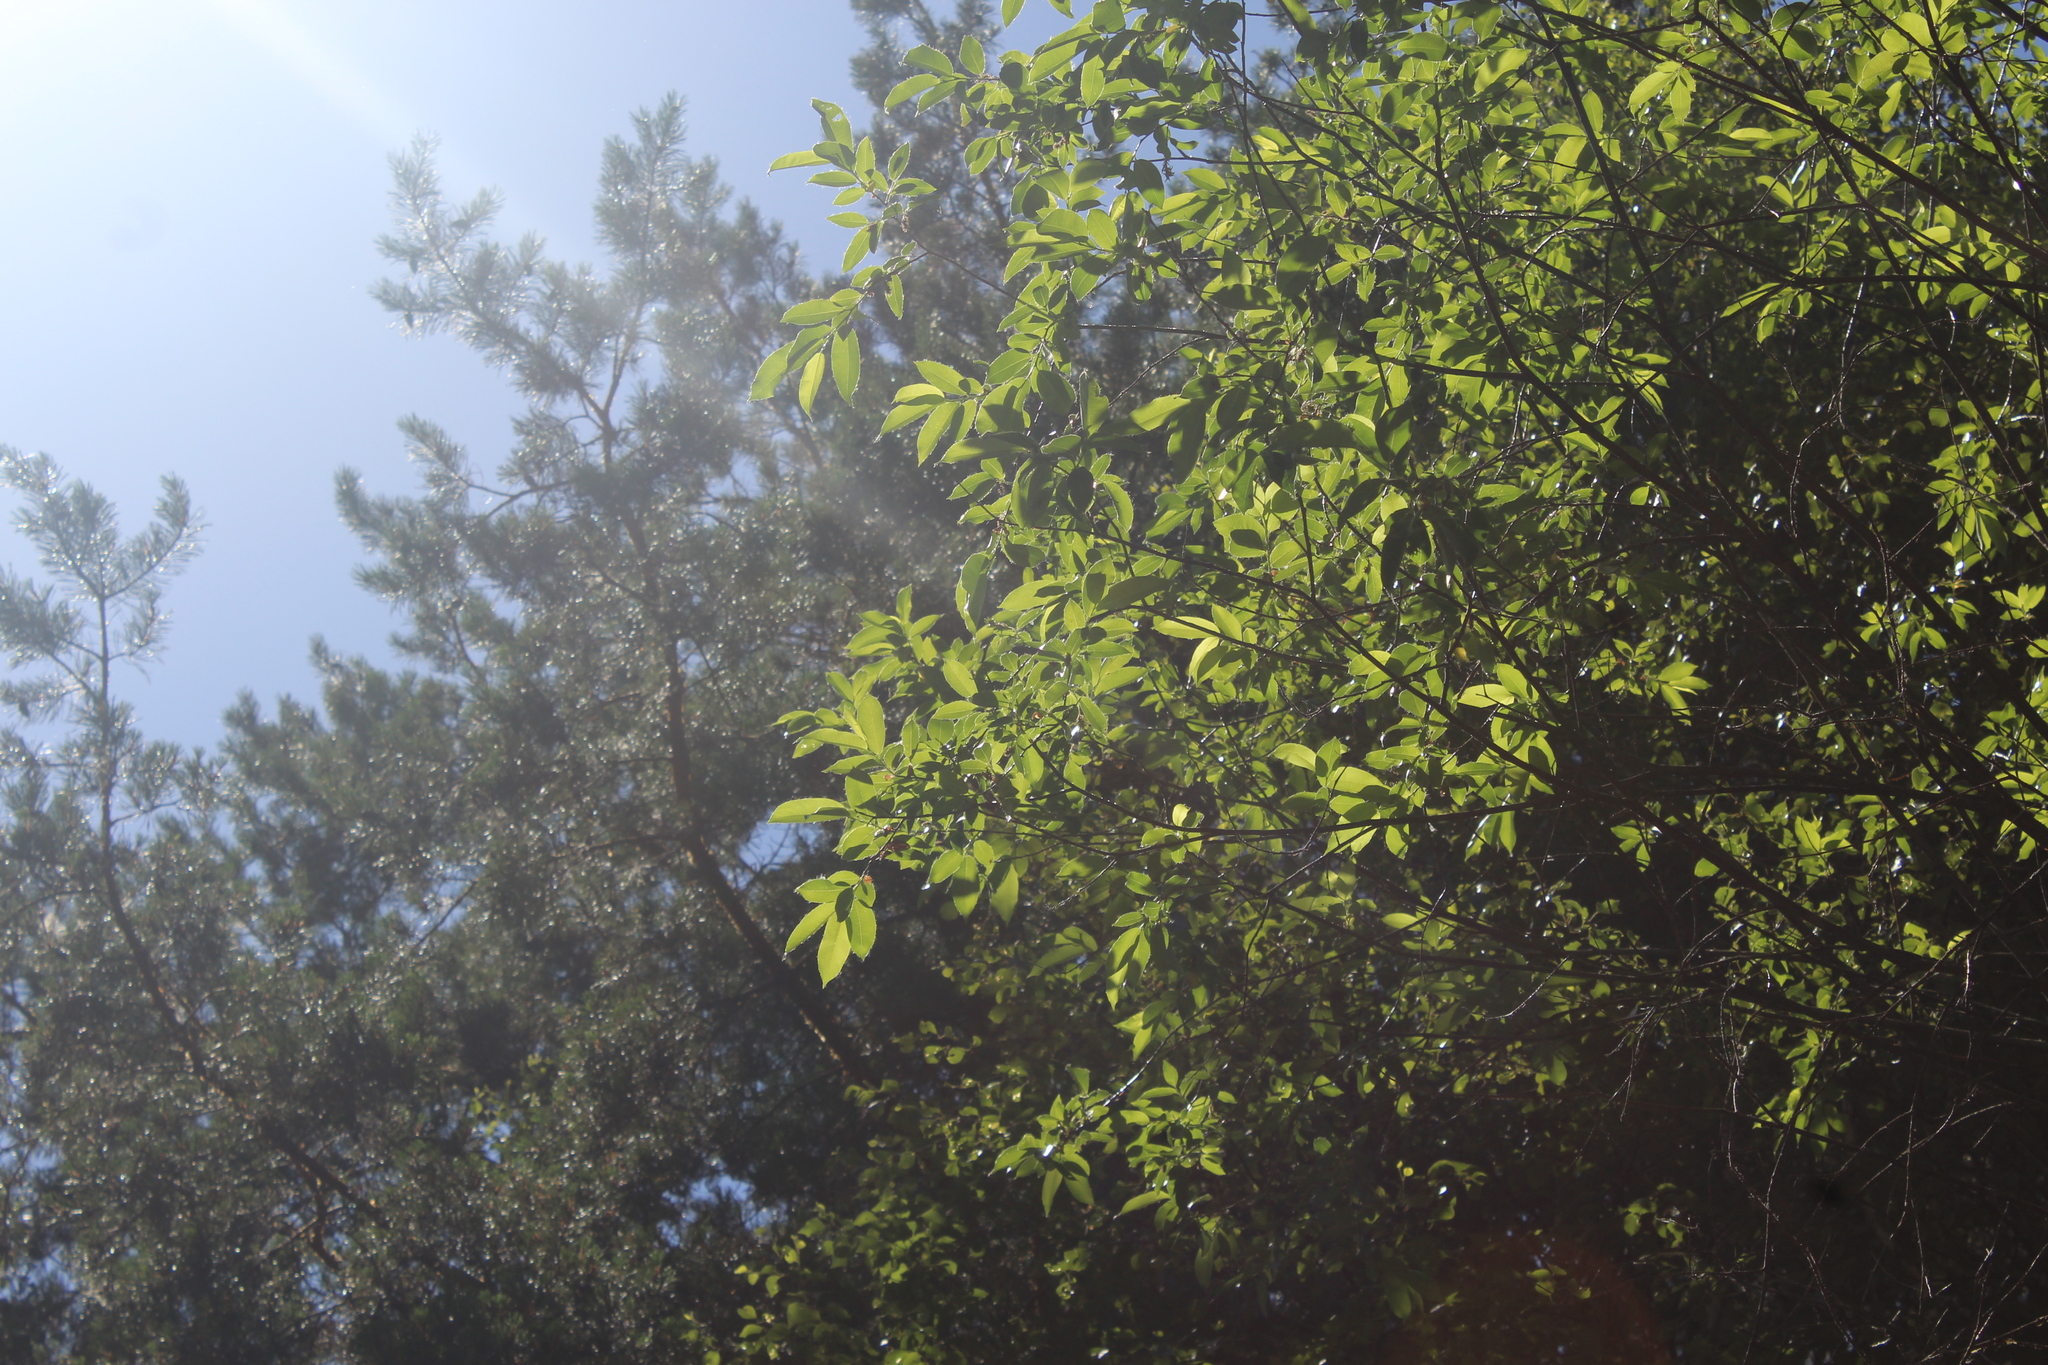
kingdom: Plantae
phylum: Tracheophyta
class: Magnoliopsida
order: Malpighiales
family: Salicaceae
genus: Salix
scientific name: Salix pentandra
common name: Bay willow
